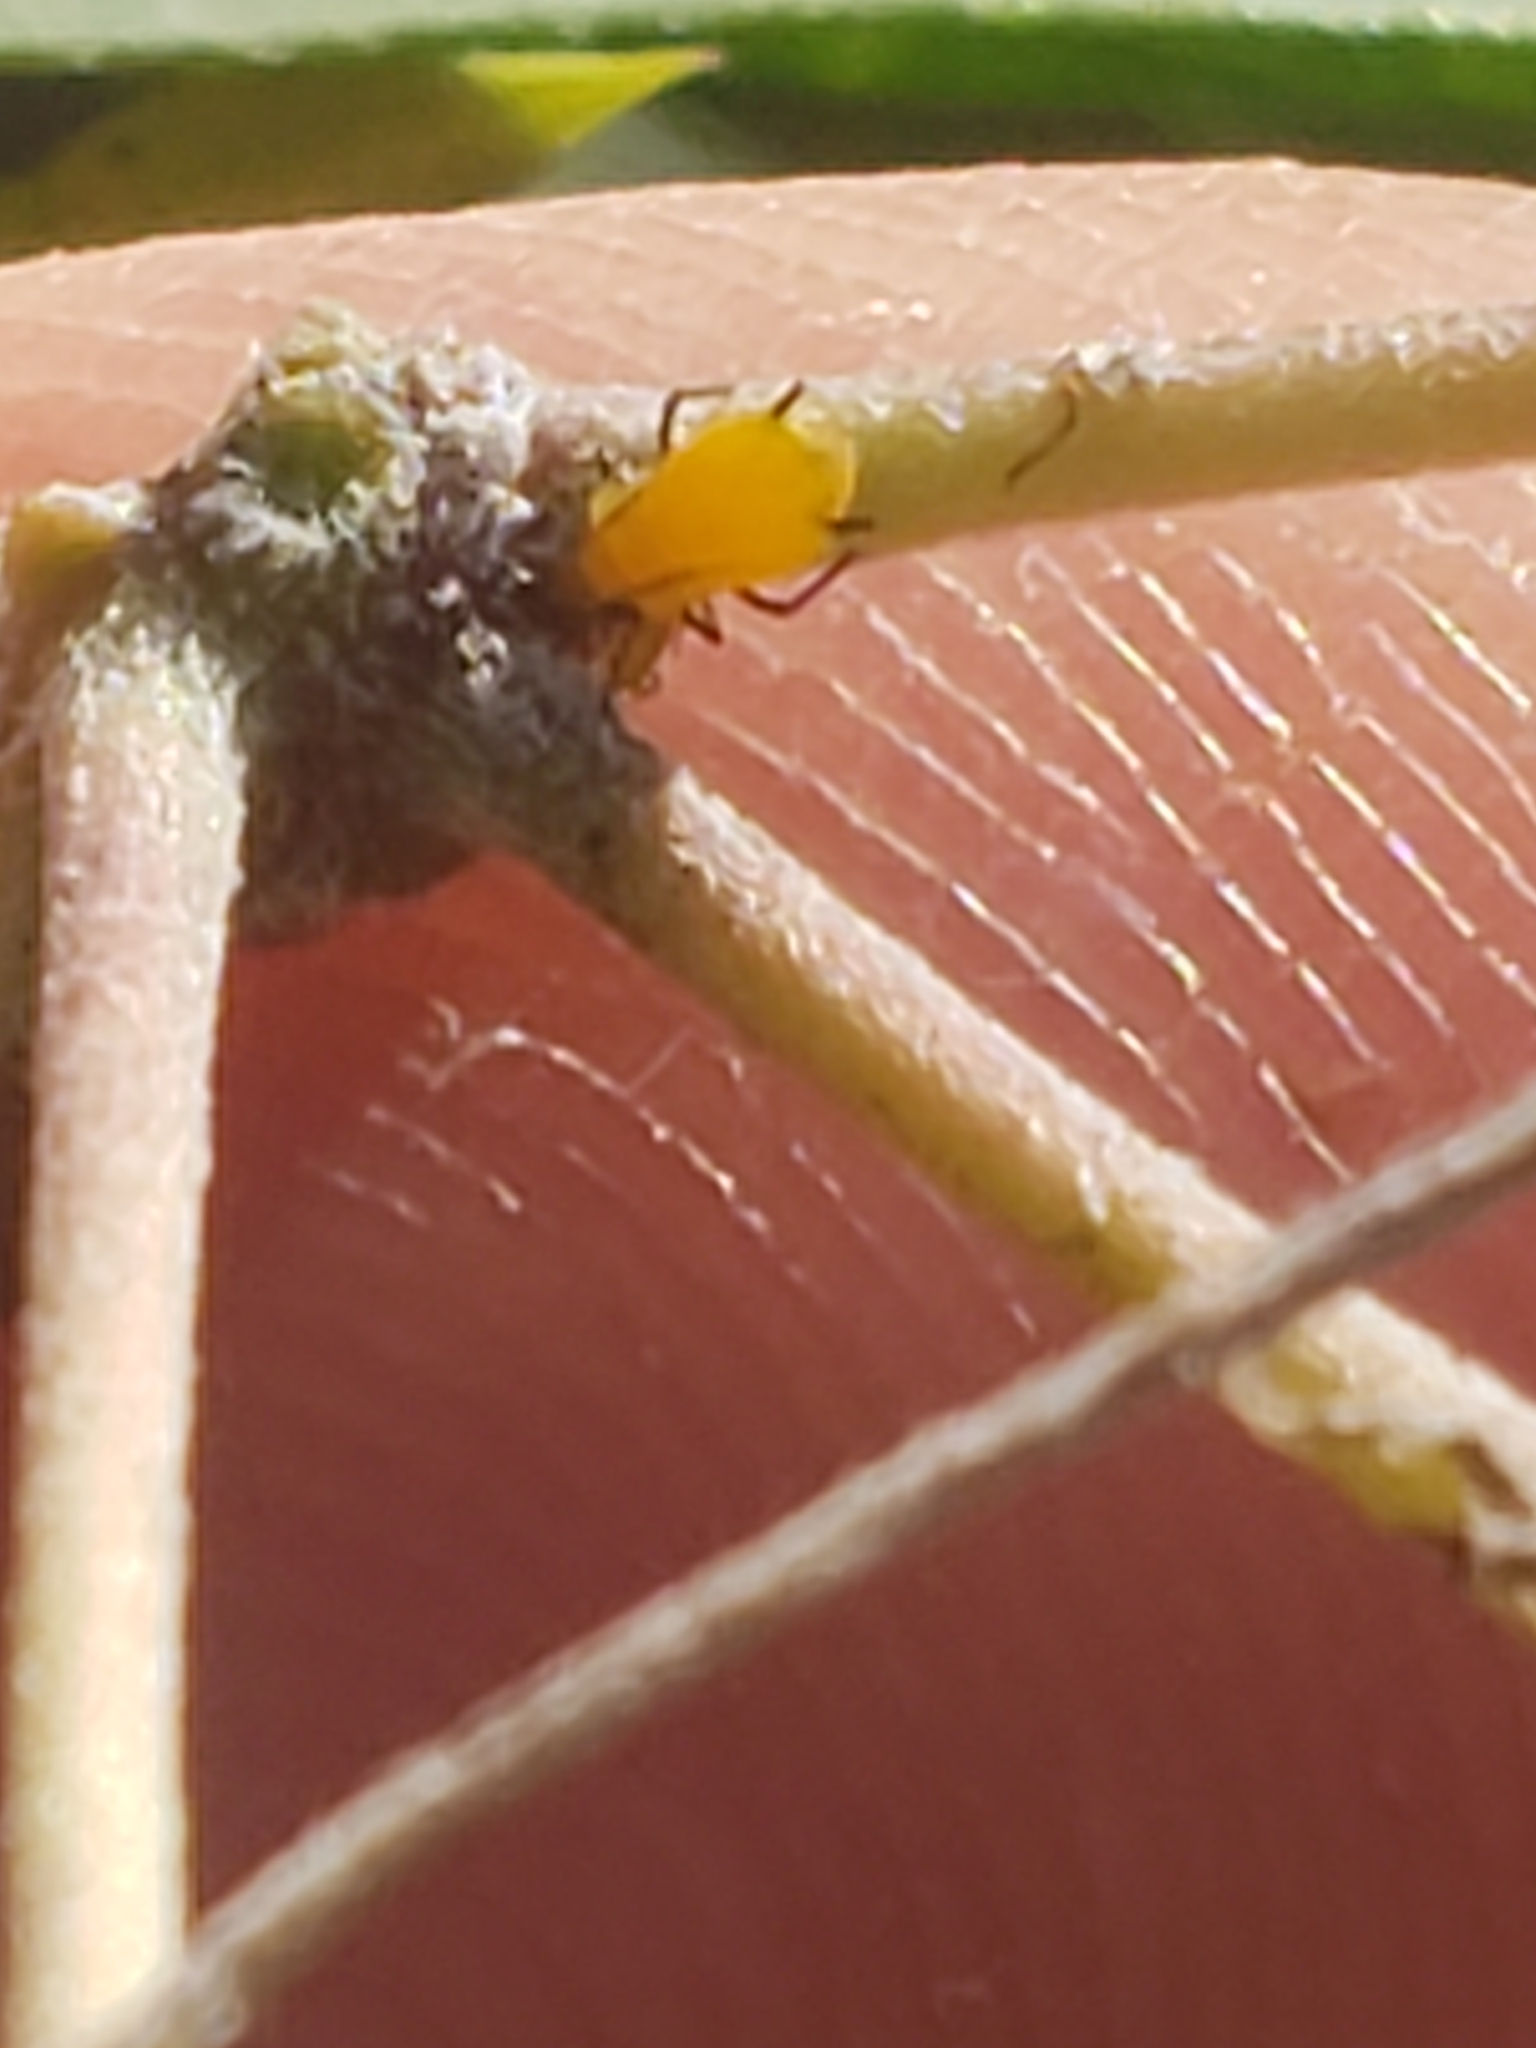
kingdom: Animalia
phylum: Arthropoda
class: Insecta
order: Hemiptera
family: Aphididae
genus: Aphis
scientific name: Aphis nerii
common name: Oleander aphid
